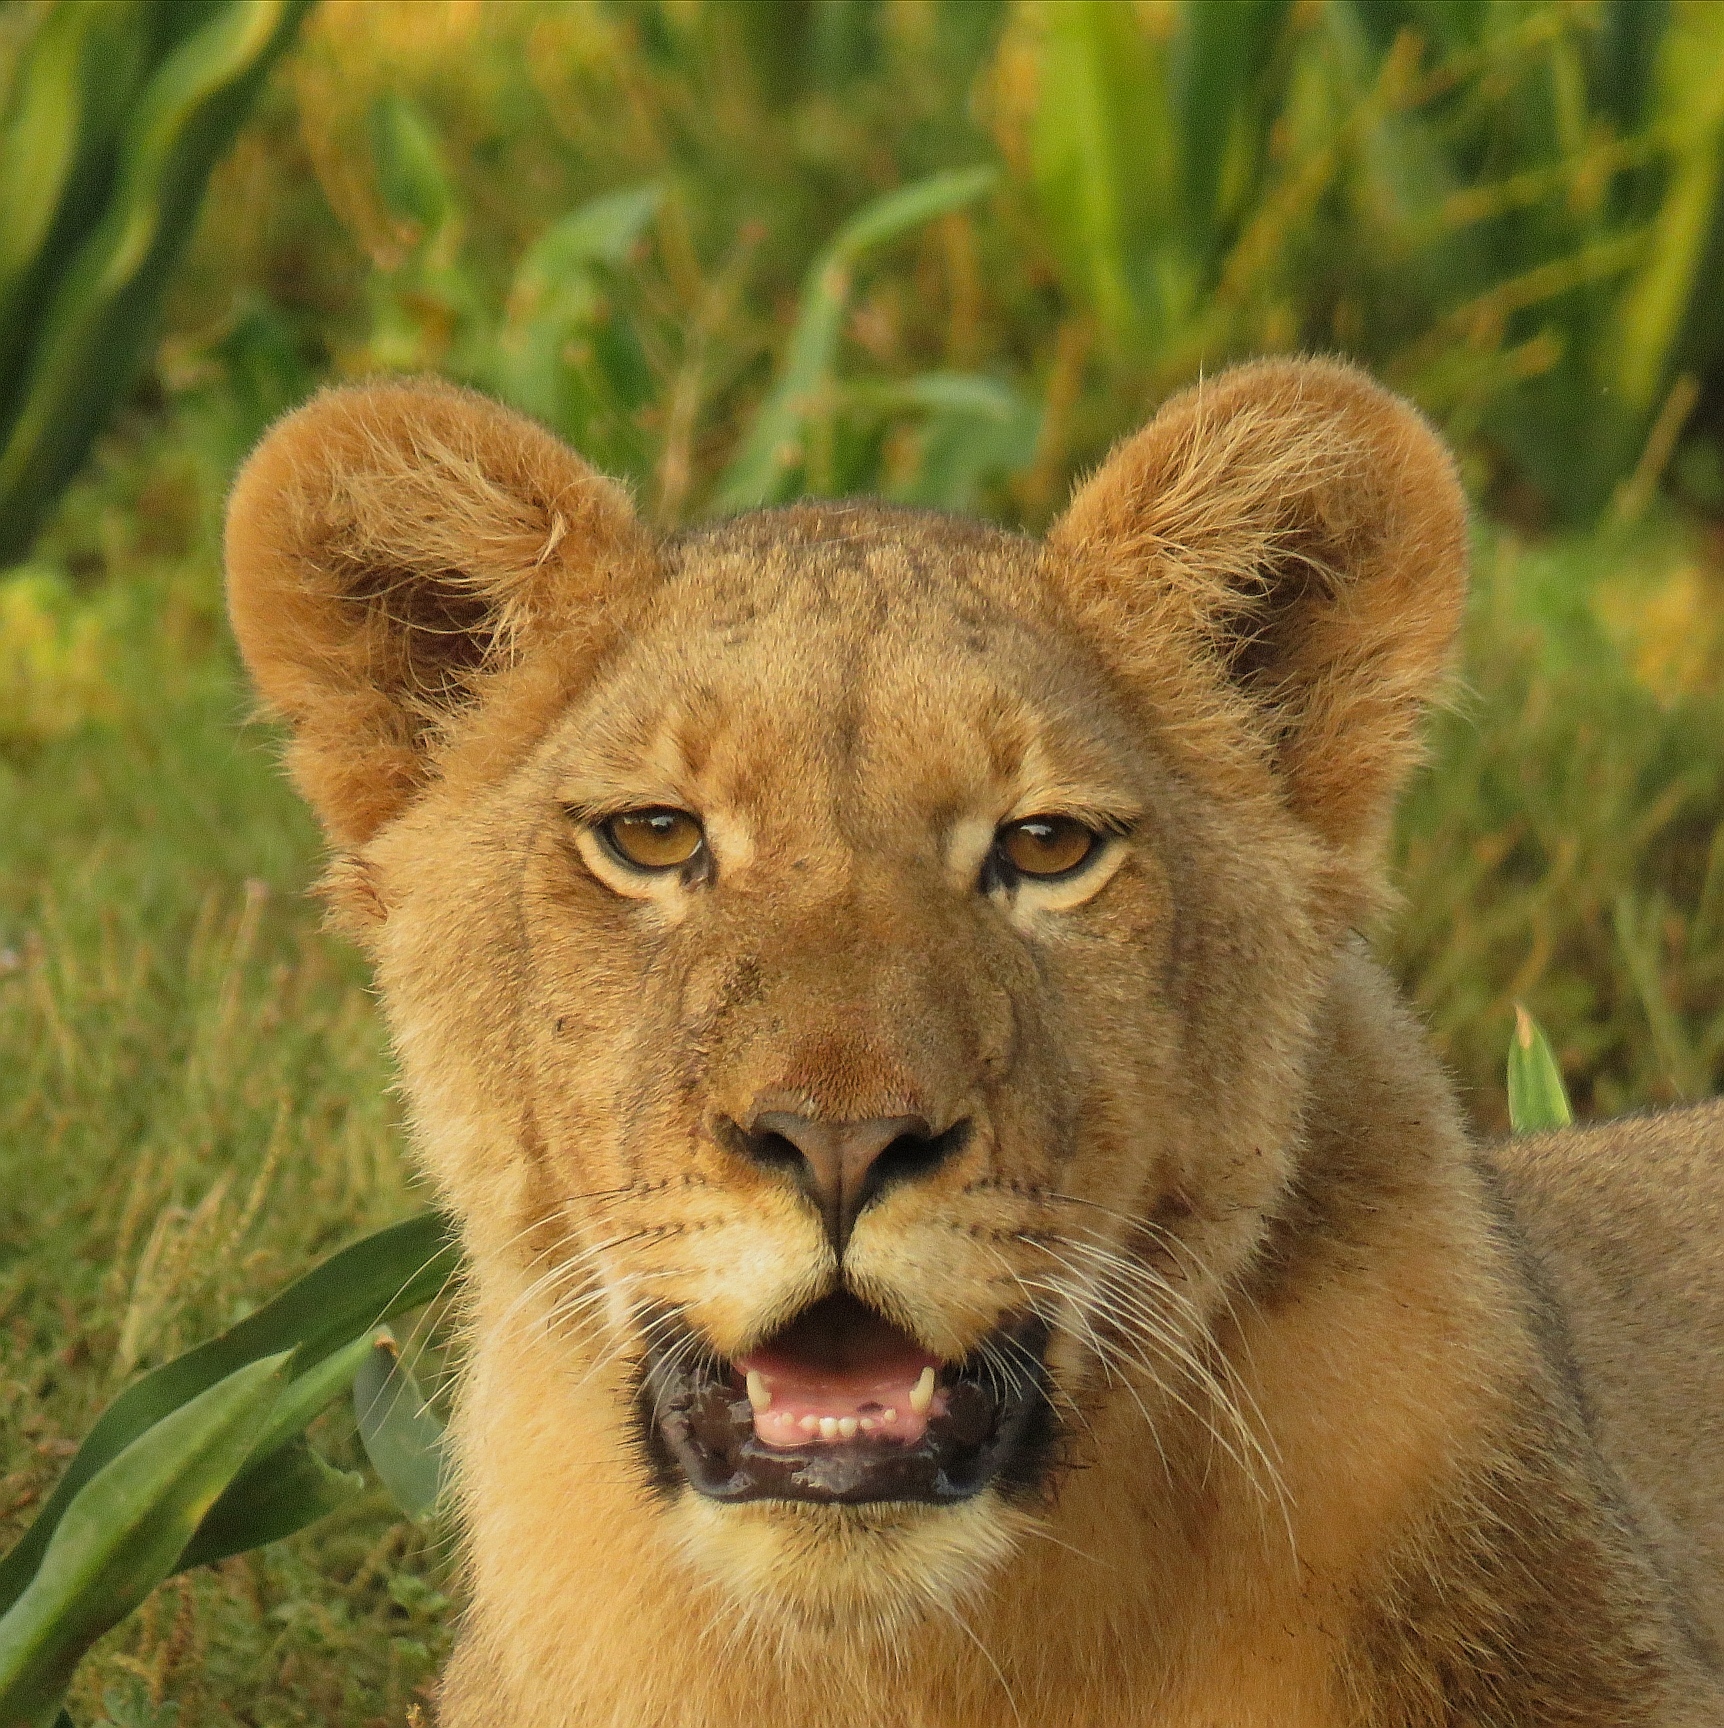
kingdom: Animalia
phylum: Chordata
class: Mammalia
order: Carnivora
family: Felidae
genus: Panthera
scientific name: Panthera leo
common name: Lion
